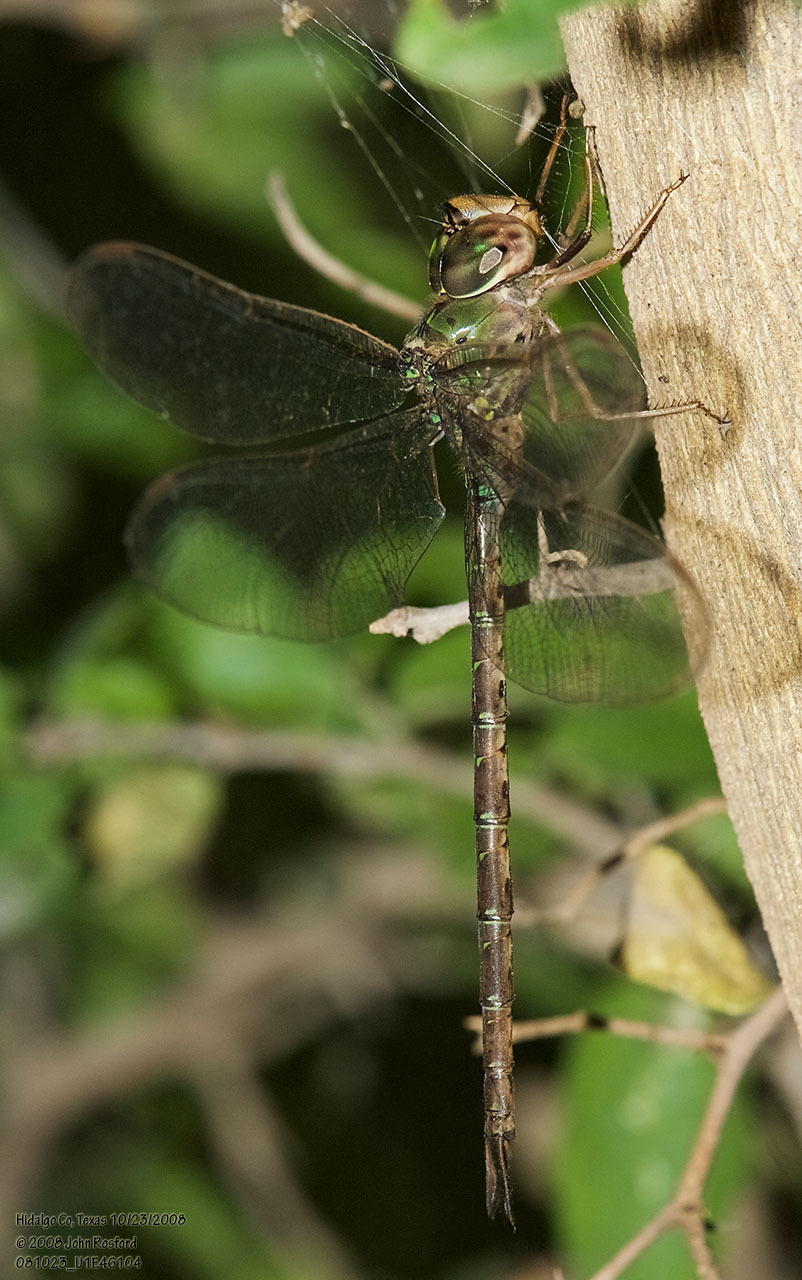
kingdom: Animalia
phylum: Arthropoda
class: Insecta
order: Odonata
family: Aeshnidae
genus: Gynacantha
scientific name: Gynacantha mexicana
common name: Bar-sided darner
